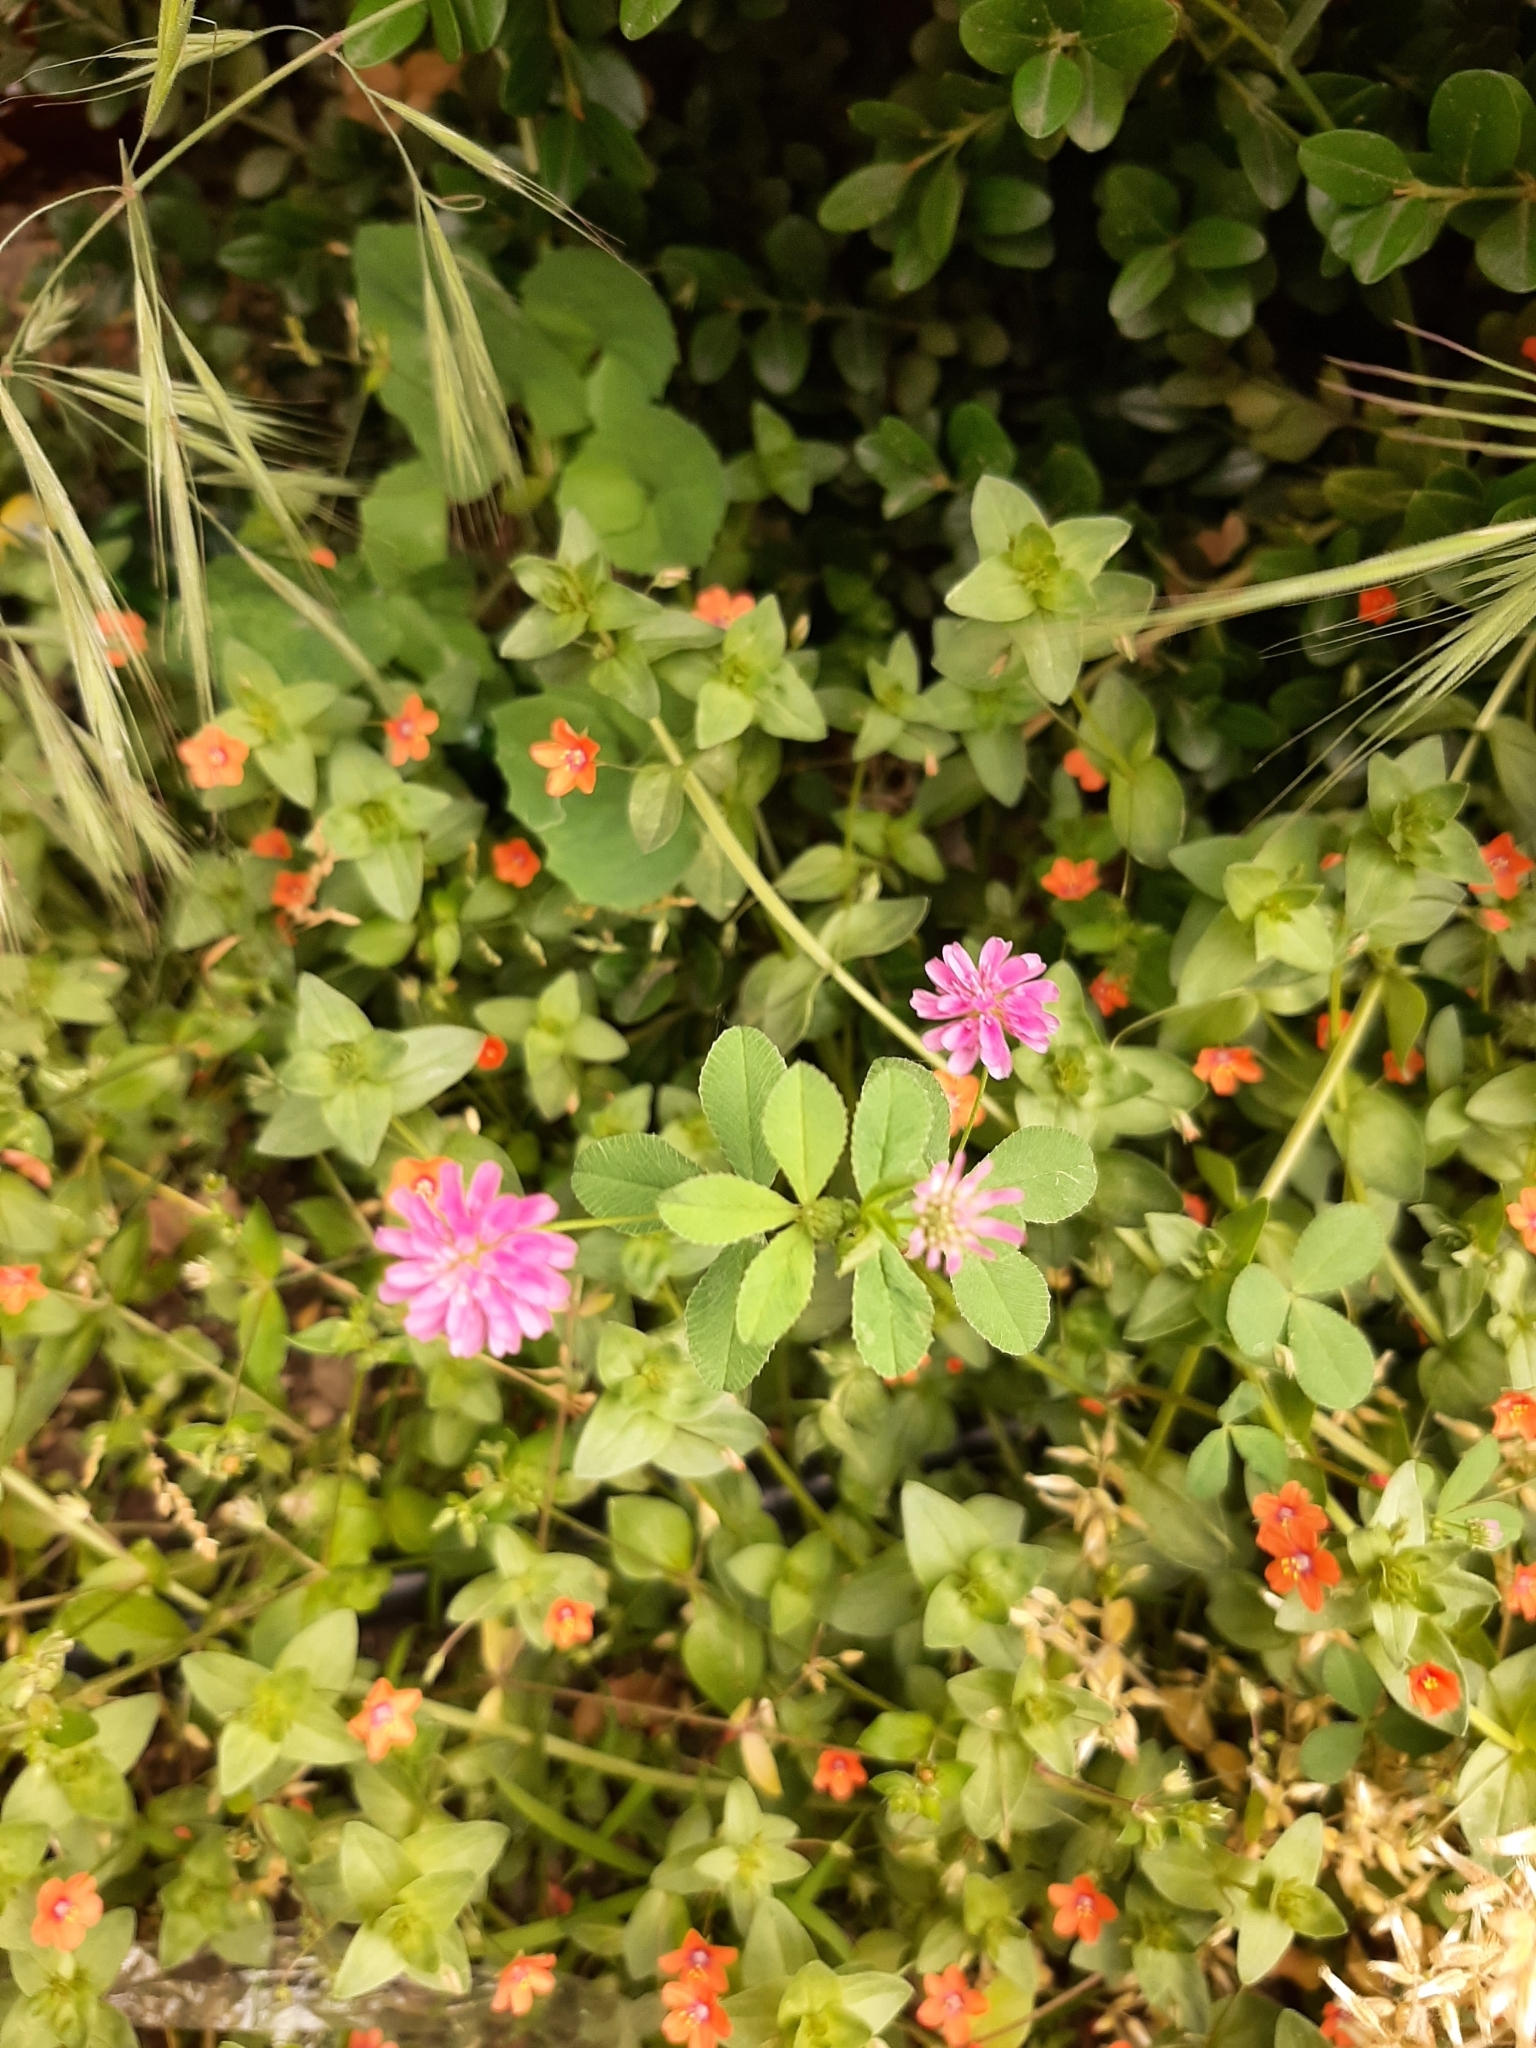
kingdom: Plantae
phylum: Tracheophyta
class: Magnoliopsida
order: Fabales
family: Fabaceae
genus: Trifolium
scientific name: Trifolium resupinatum
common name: Reversed clover
